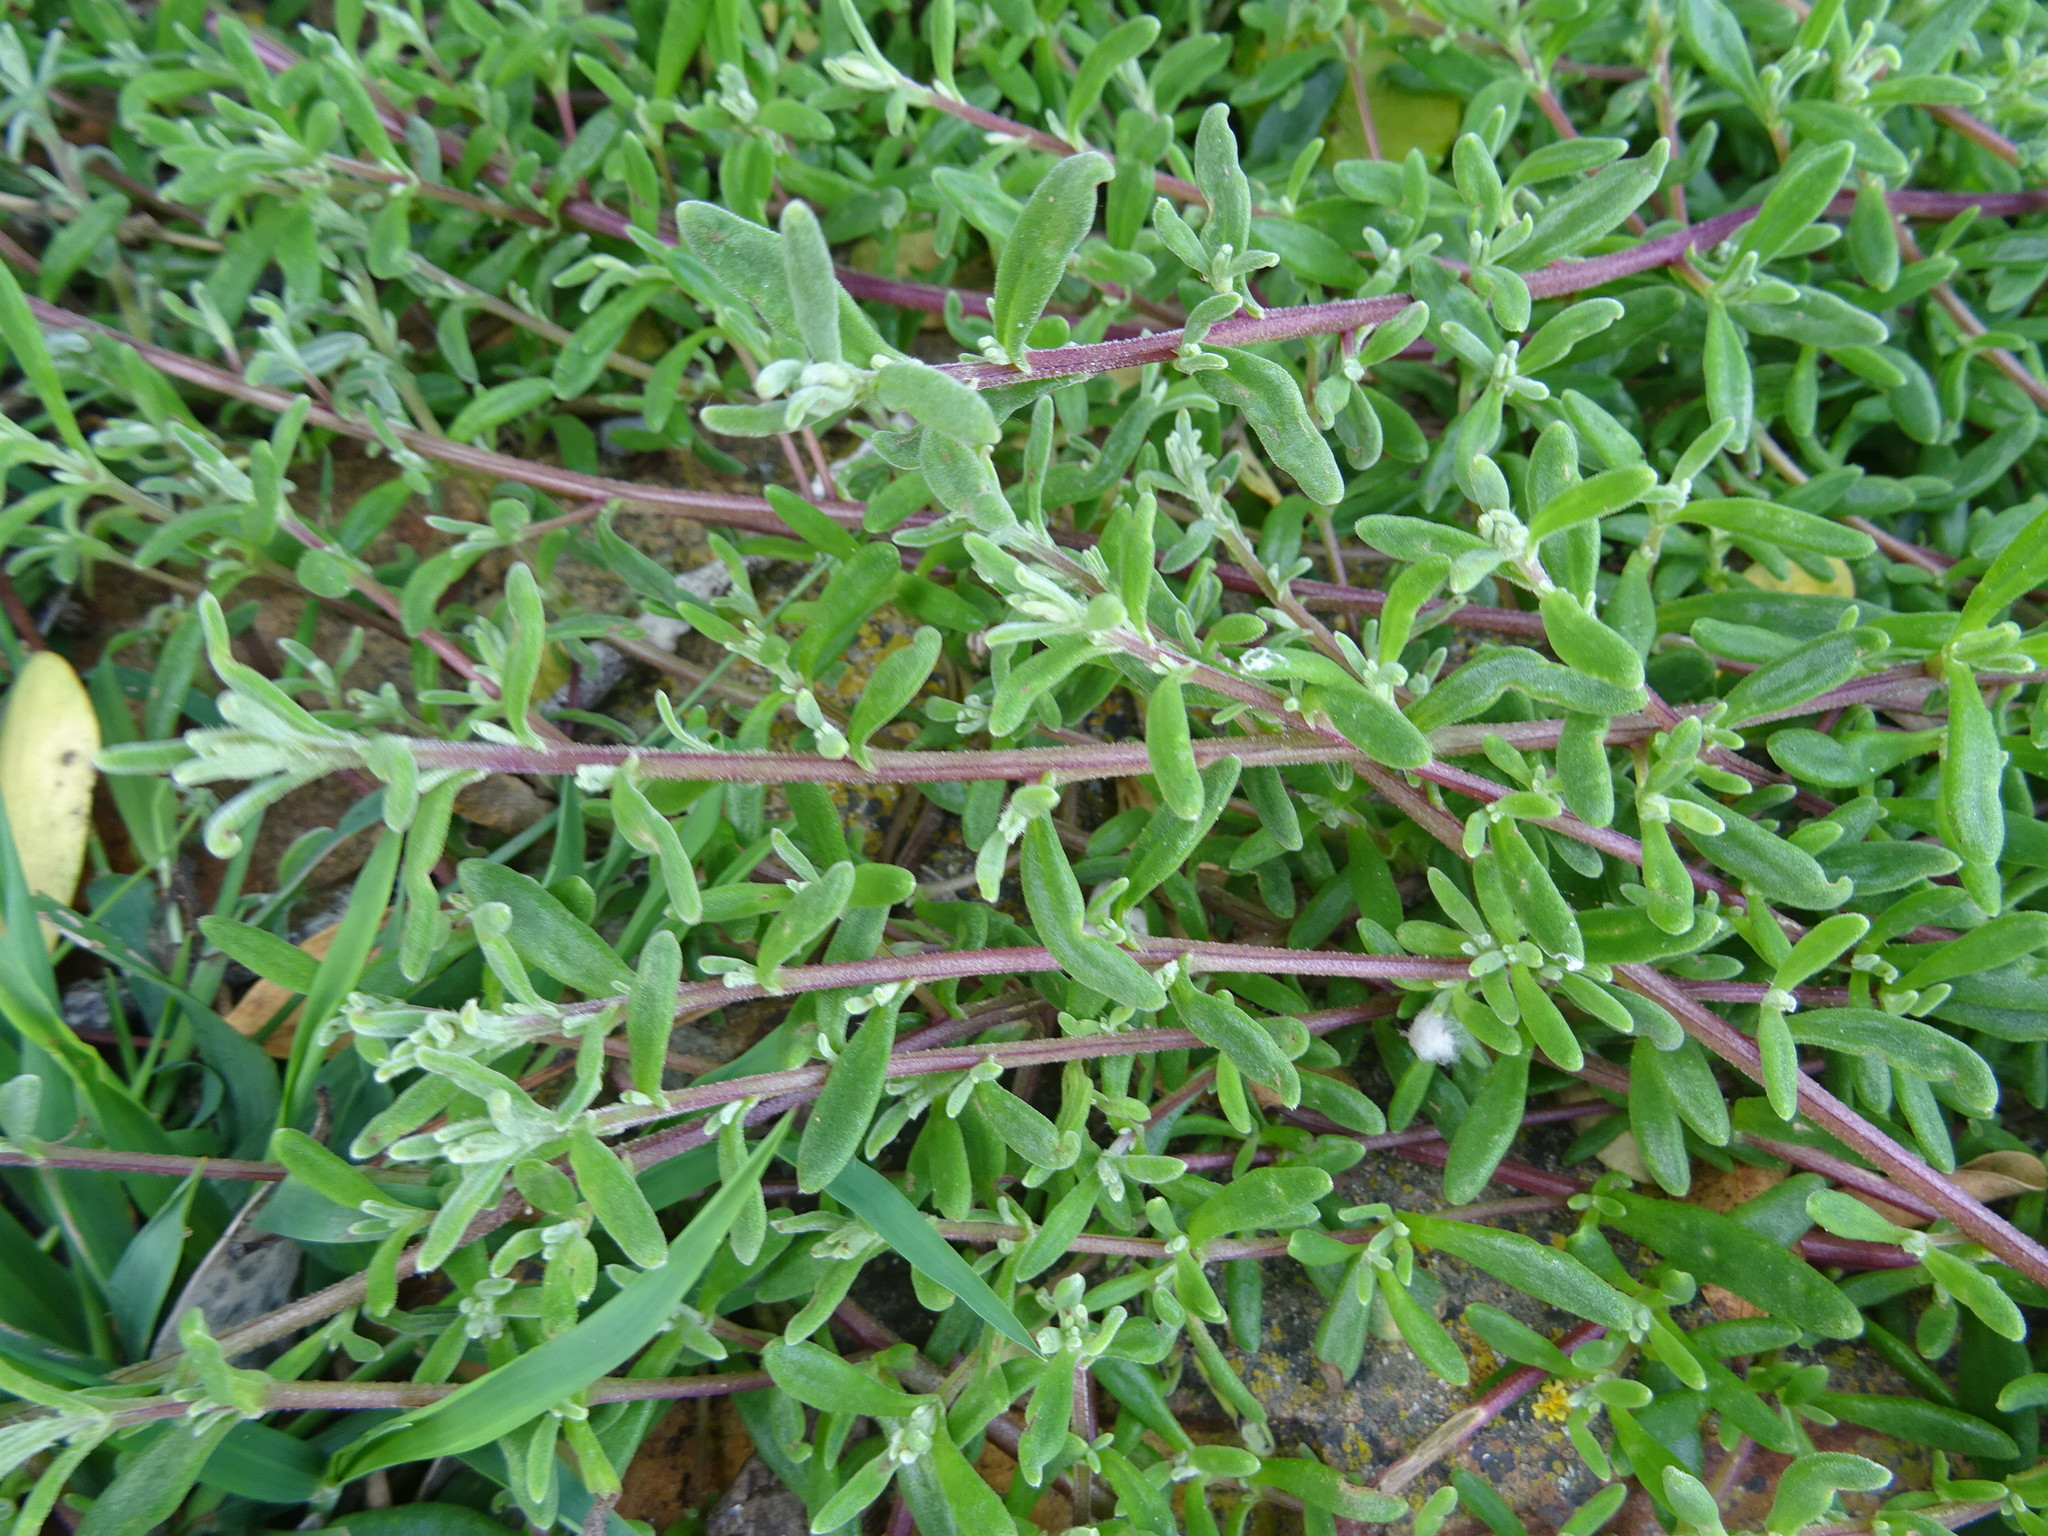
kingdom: Plantae
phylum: Tracheophyta
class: Magnoliopsida
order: Caryophyllales
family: Aizoaceae
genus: Tetragonia
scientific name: Tetragonia fruticosa
